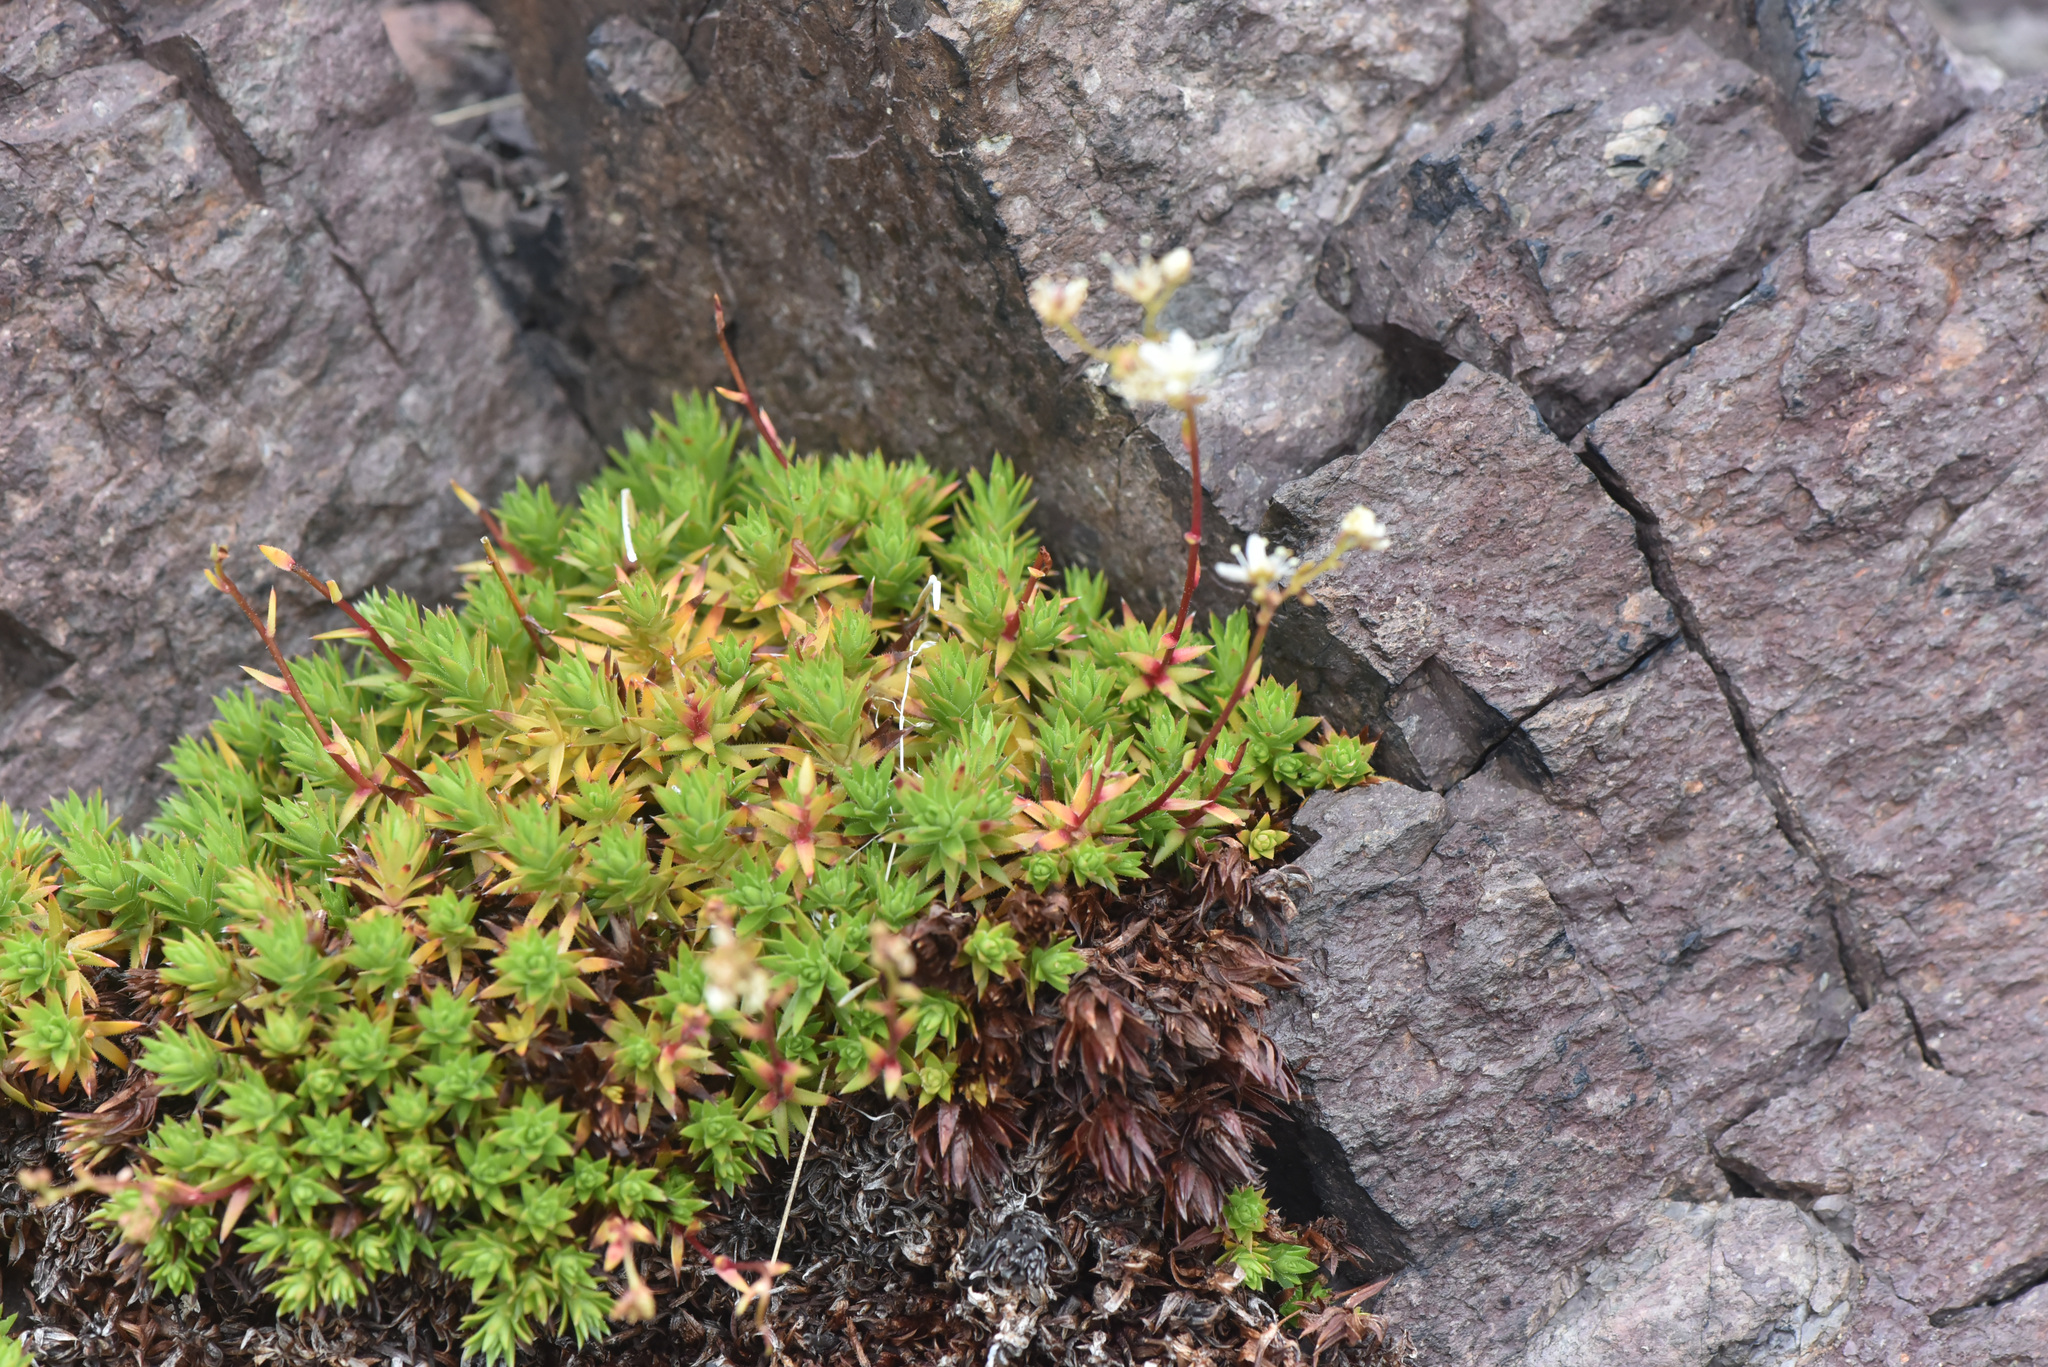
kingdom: Plantae
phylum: Tracheophyta
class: Magnoliopsida
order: Saxifragales
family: Saxifragaceae
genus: Saxifraga
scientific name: Saxifraga bronchialis
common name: Matted saxifrage
